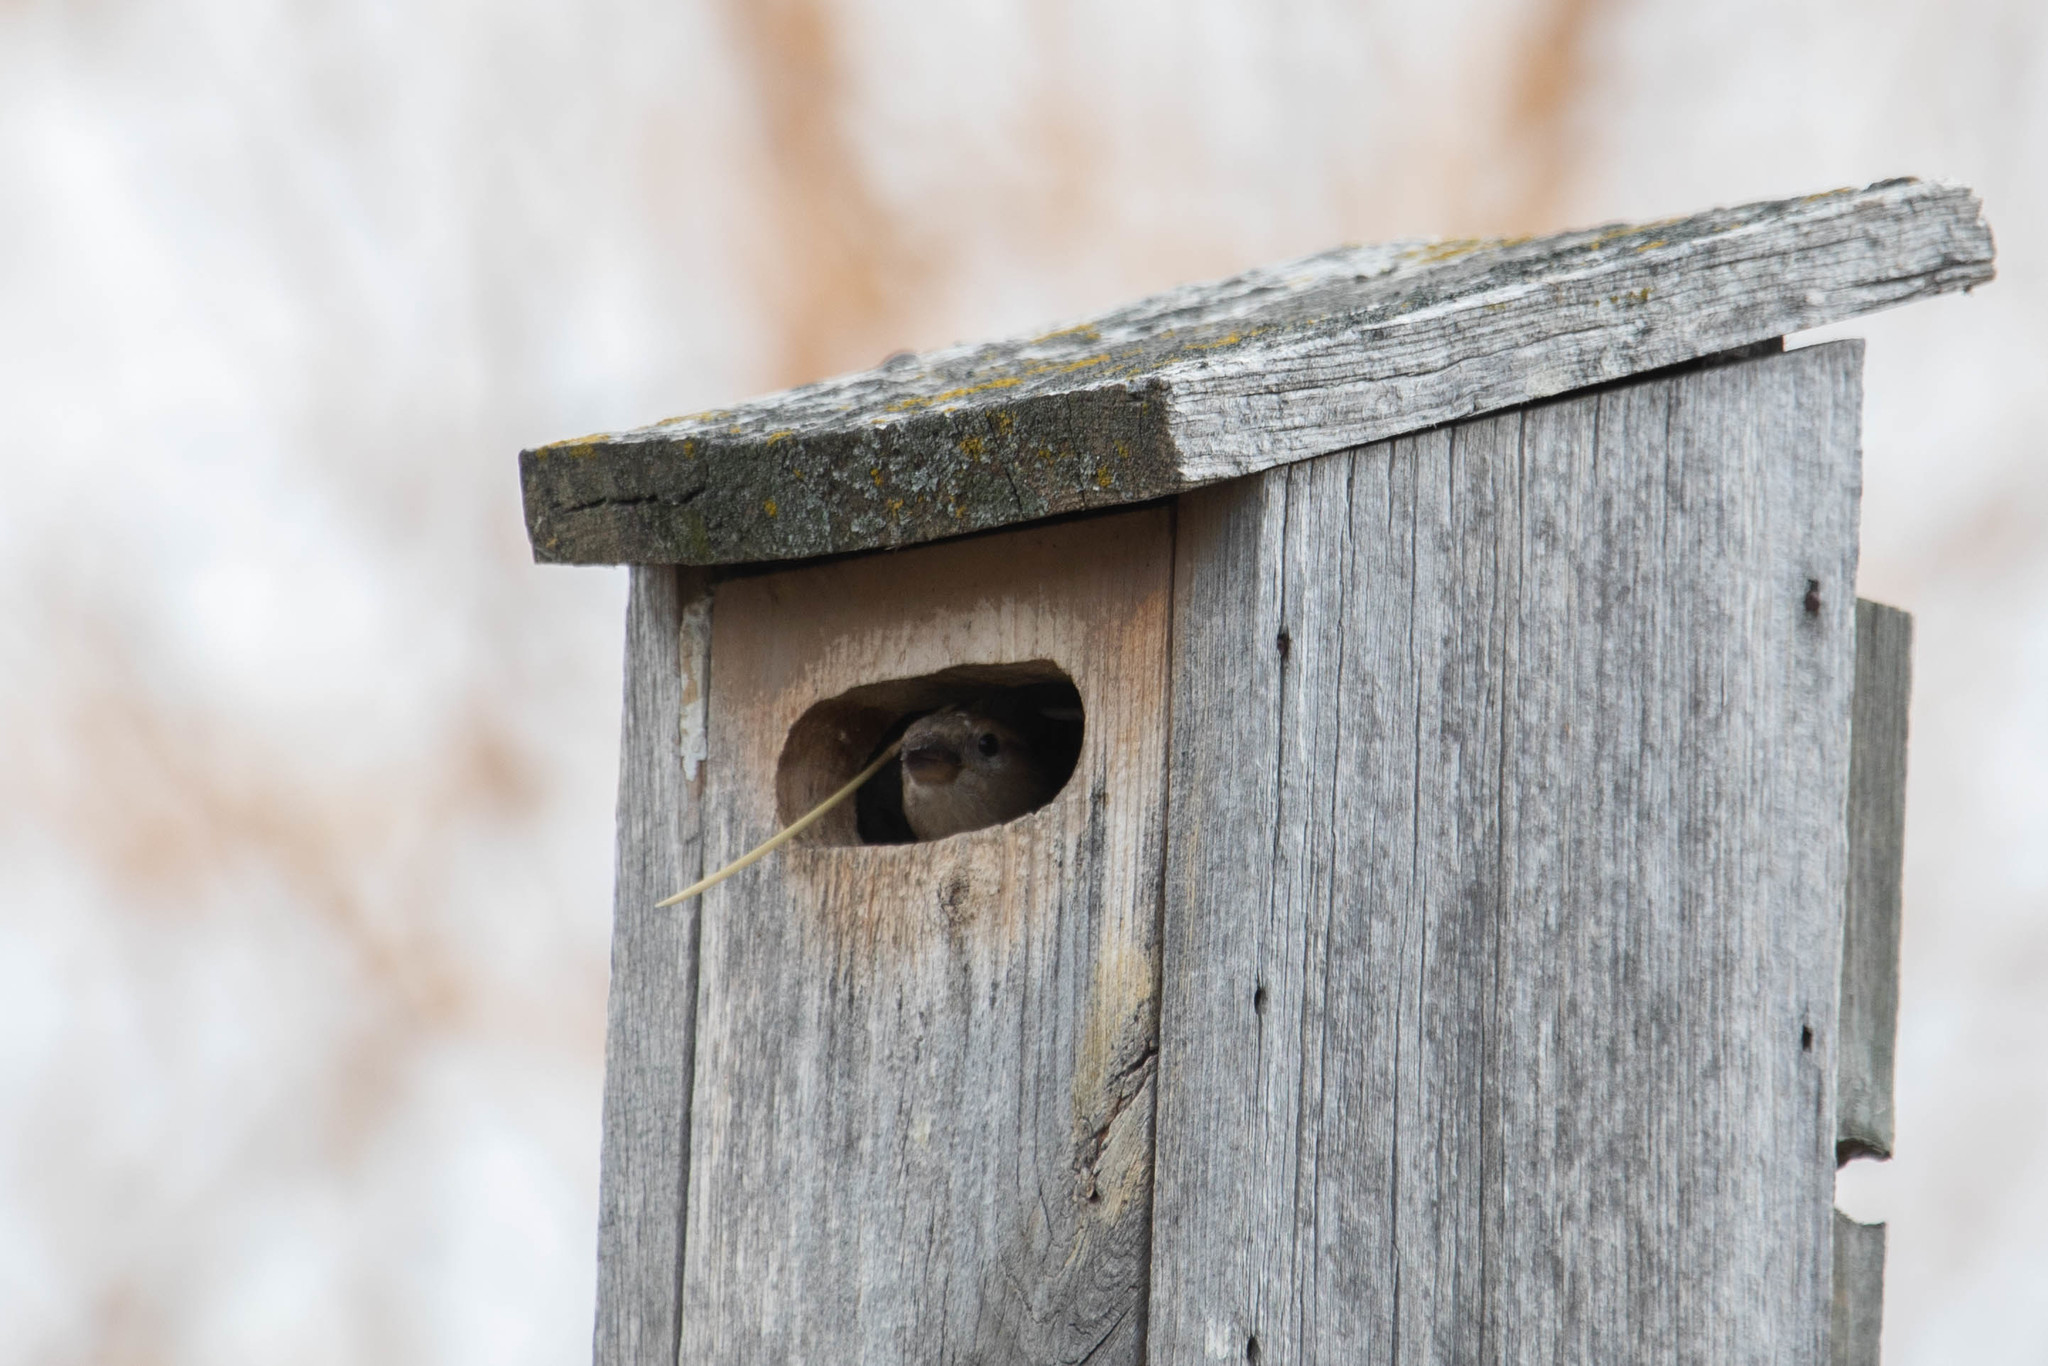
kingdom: Animalia
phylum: Chordata
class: Aves
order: Passeriformes
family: Passeridae
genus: Passer
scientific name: Passer domesticus
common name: House sparrow
